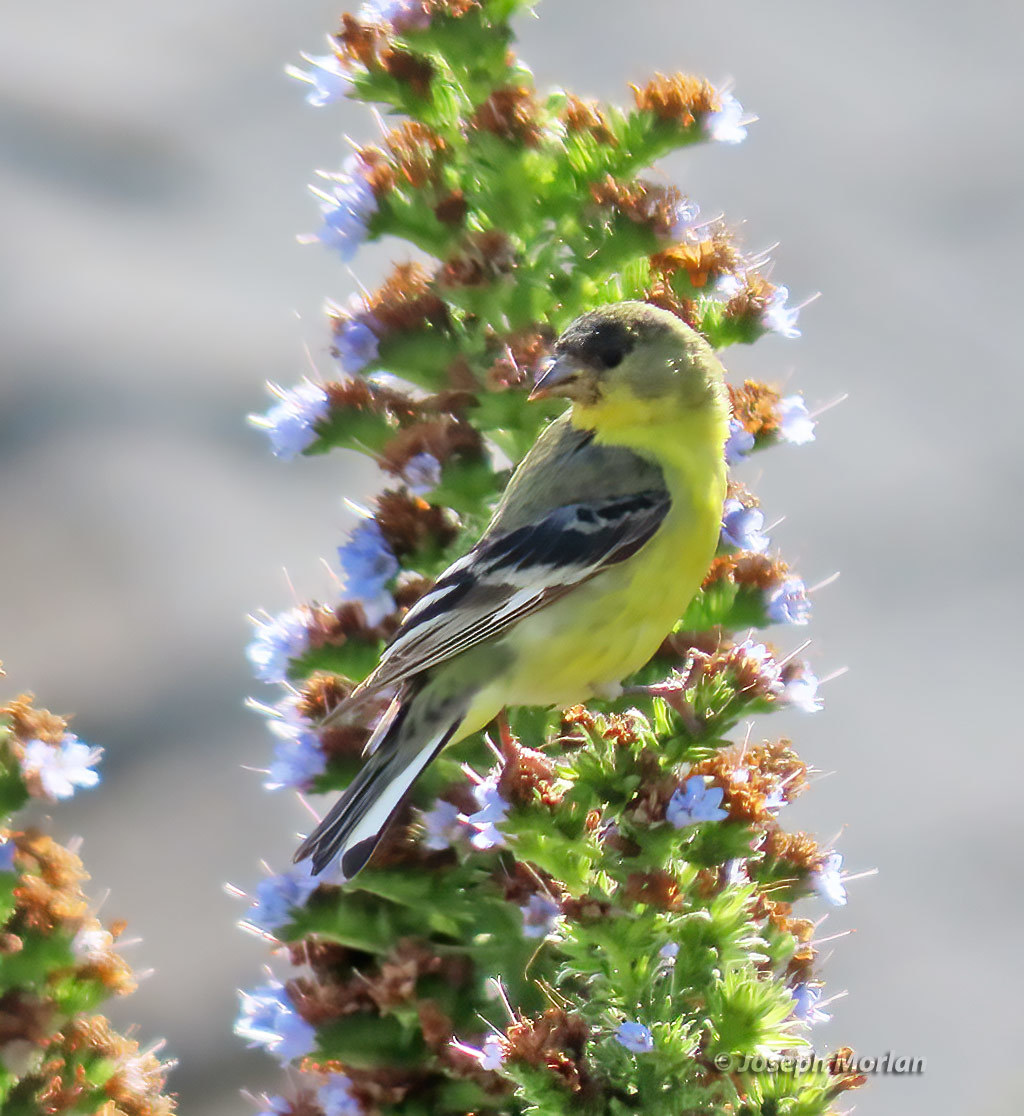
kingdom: Animalia
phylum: Chordata
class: Aves
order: Passeriformes
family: Fringillidae
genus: Spinus
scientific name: Spinus psaltria
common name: Lesser goldfinch
